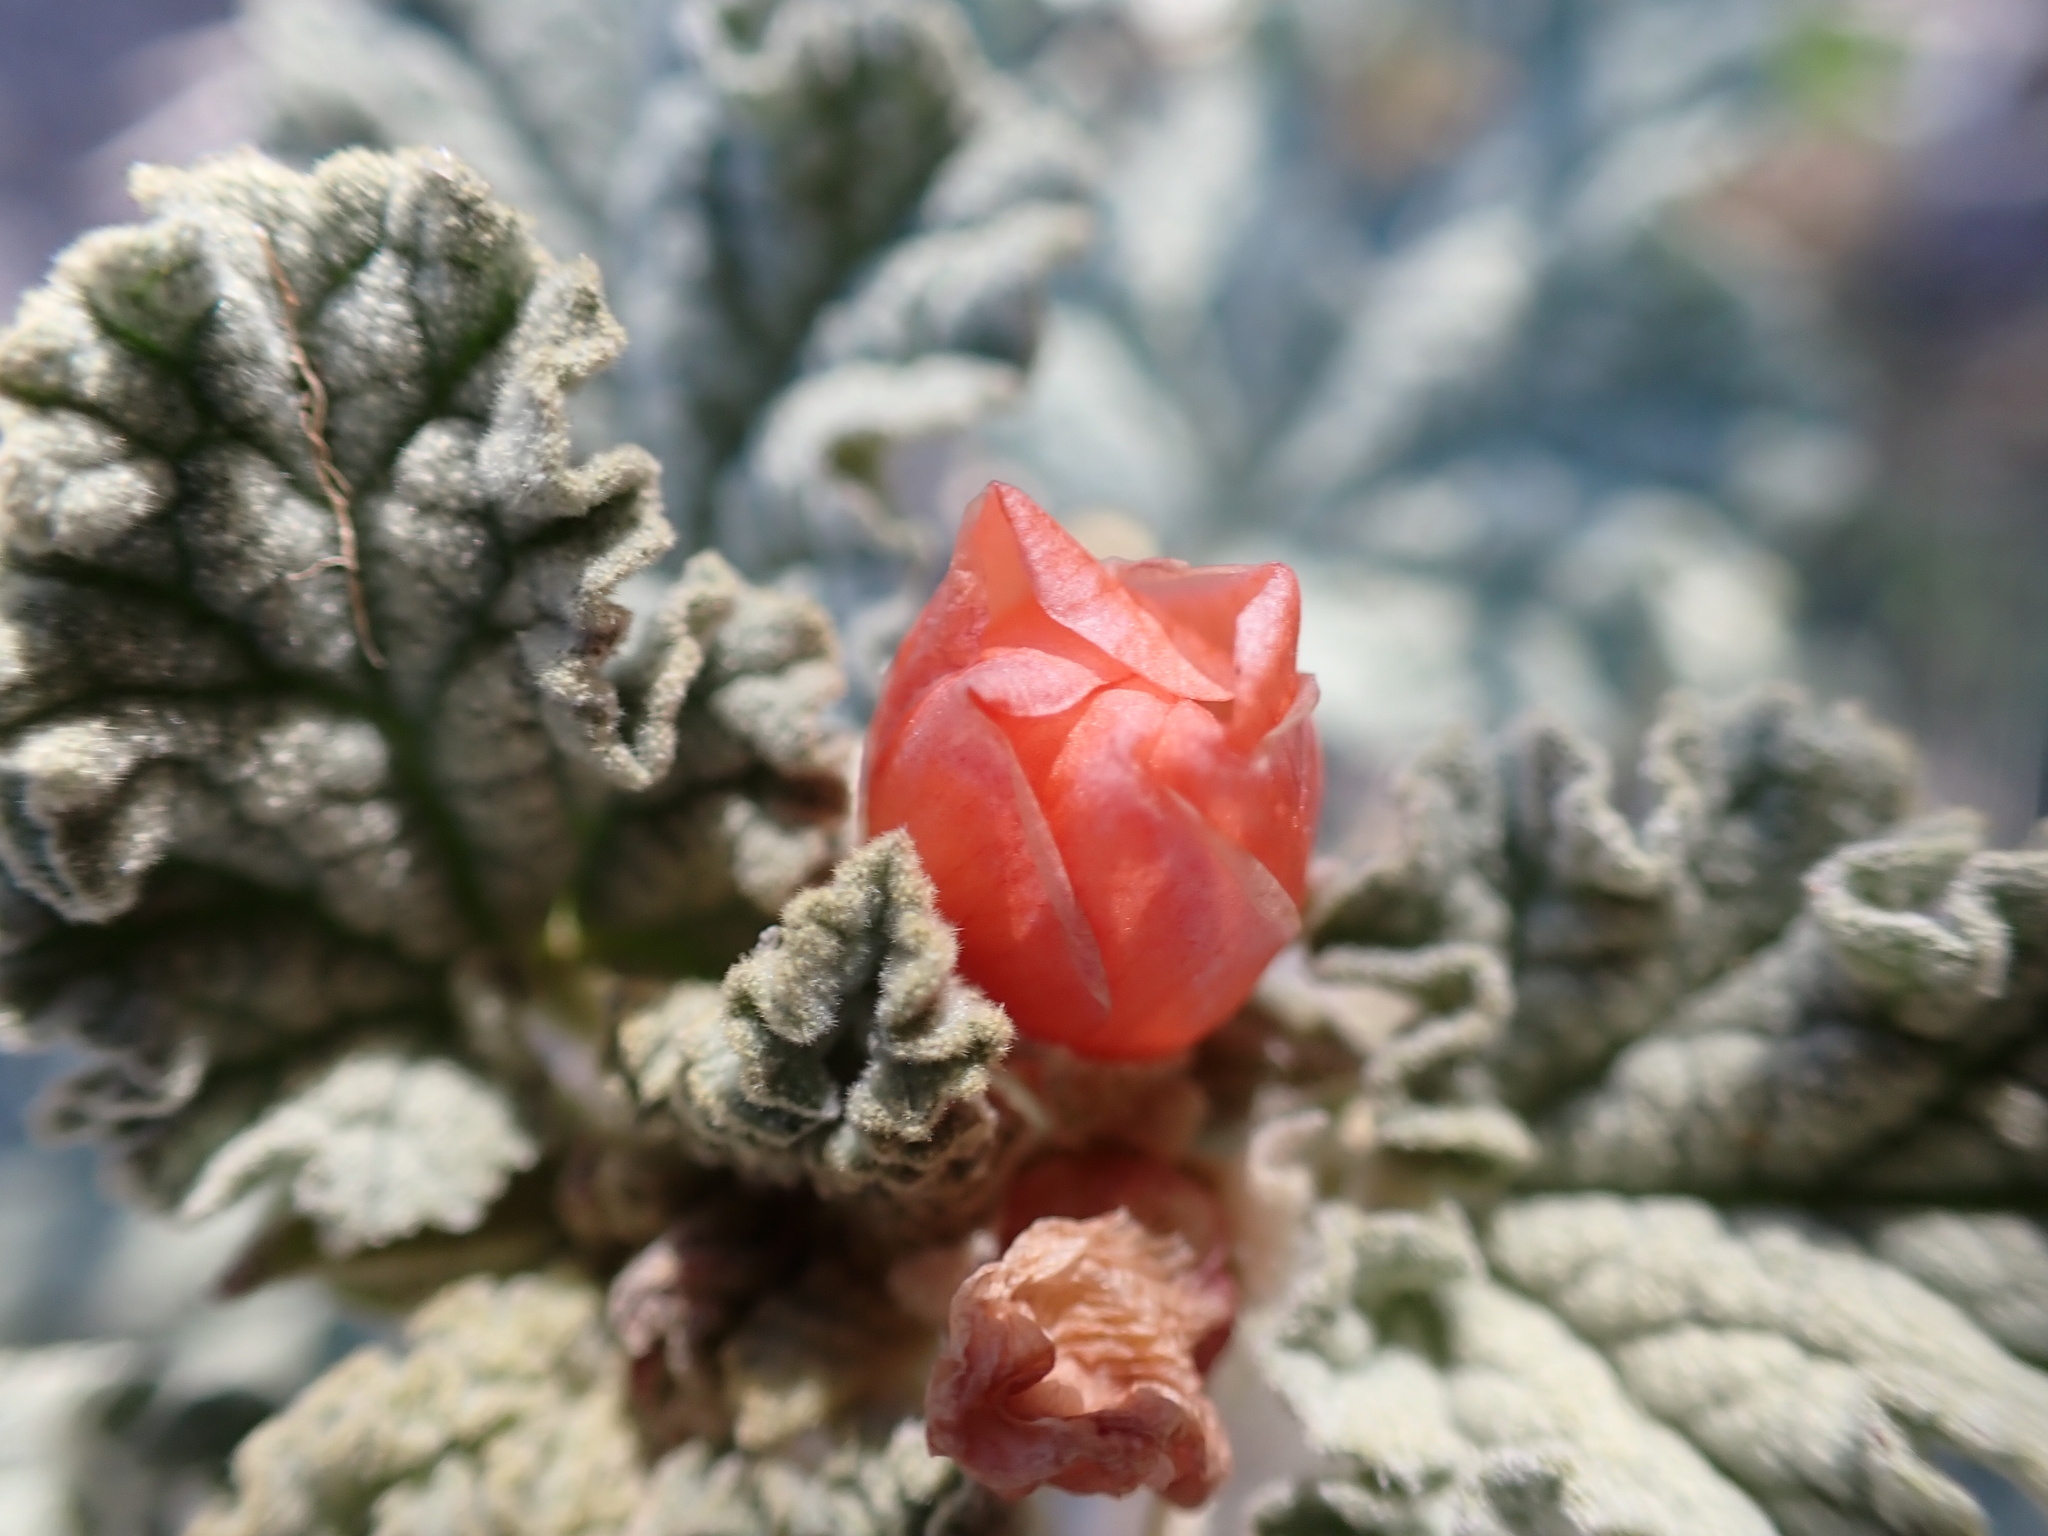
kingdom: Plantae
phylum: Tracheophyta
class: Magnoliopsida
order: Malvales
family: Malvaceae
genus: Sphaeralcea
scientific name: Sphaeralcea ambigua
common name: Apricot globe-mallow
